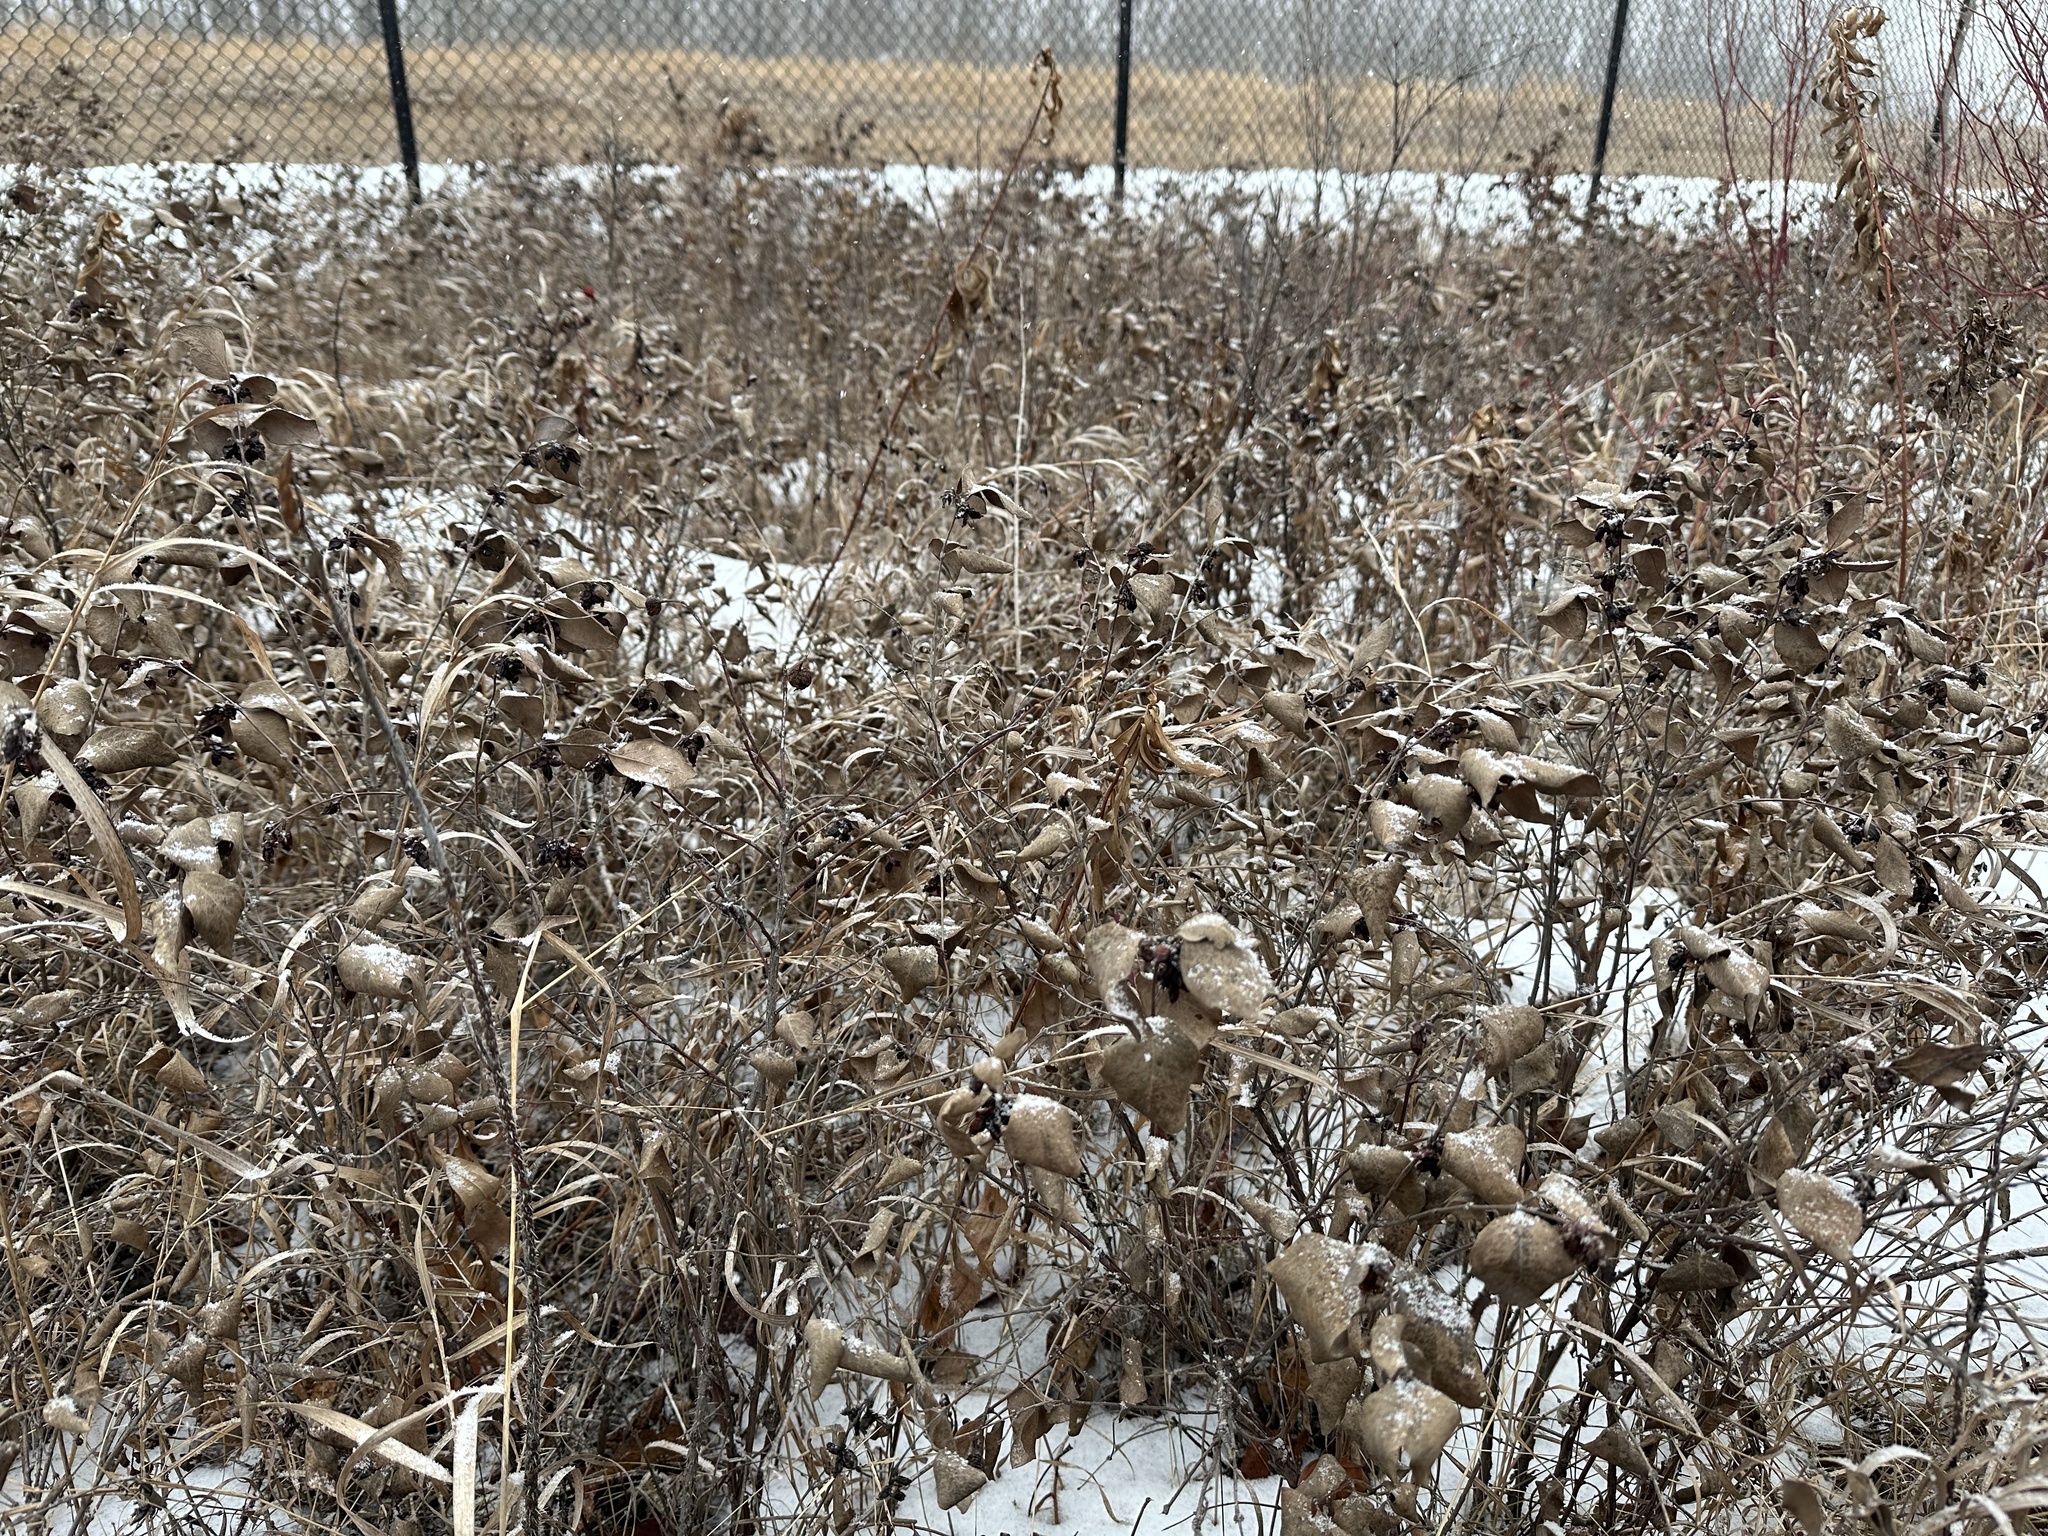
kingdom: Plantae
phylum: Tracheophyta
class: Magnoliopsida
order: Dipsacales
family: Caprifoliaceae
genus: Symphoricarpos
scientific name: Symphoricarpos occidentalis
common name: Wolfberry
